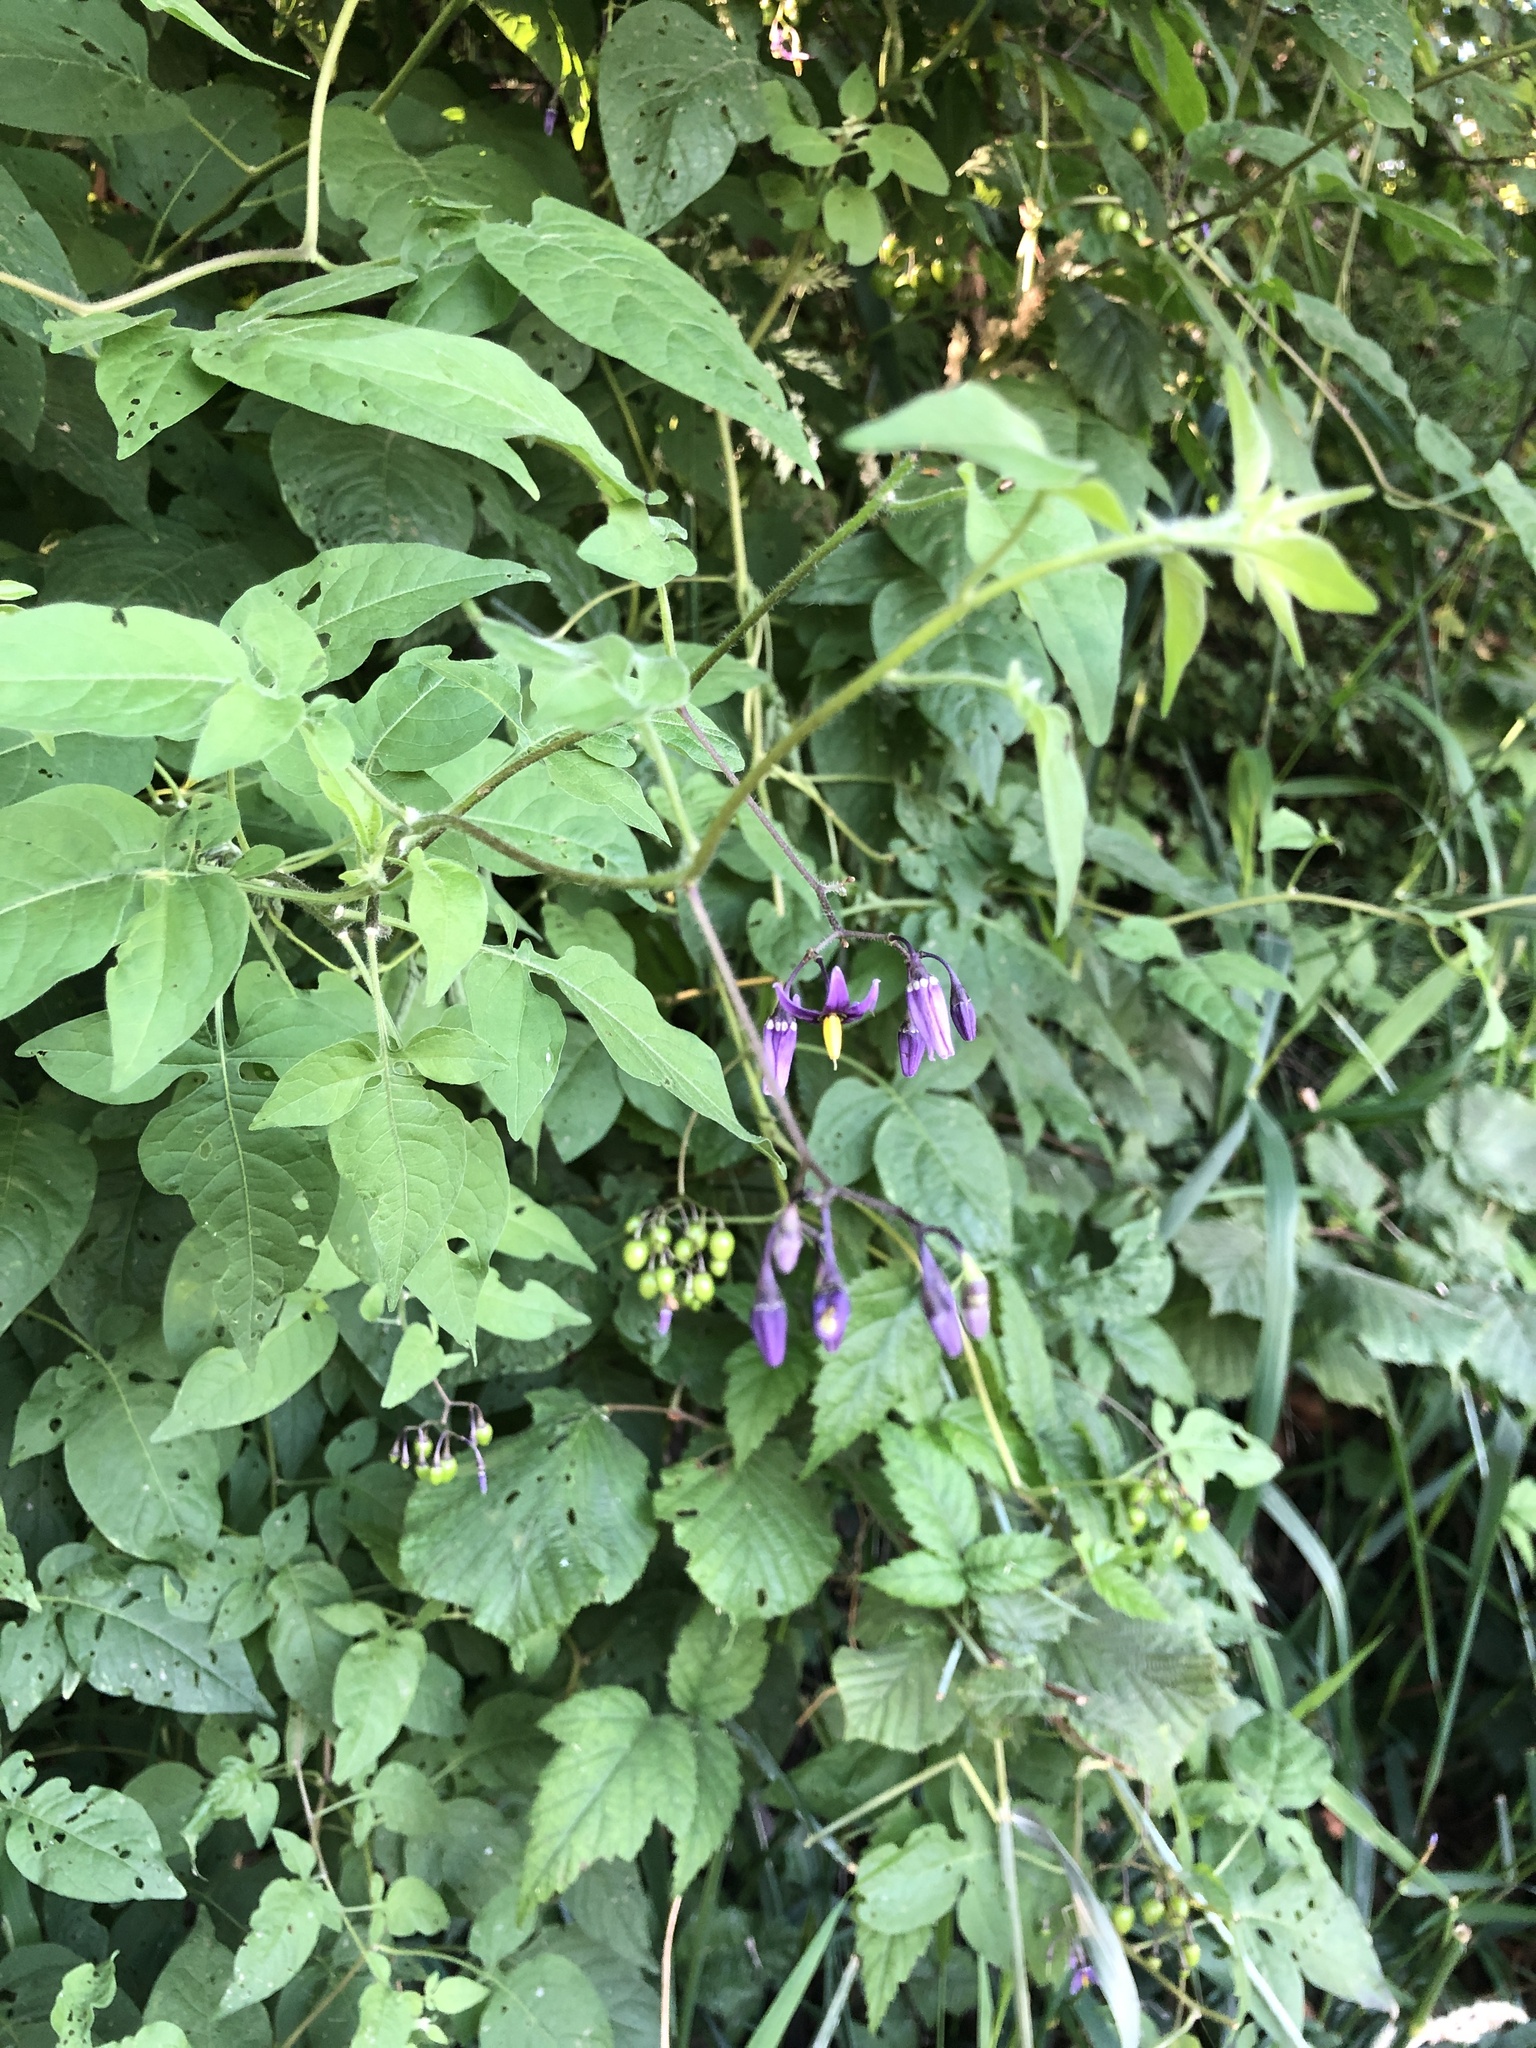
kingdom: Plantae
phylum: Tracheophyta
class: Magnoliopsida
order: Solanales
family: Solanaceae
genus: Solanum
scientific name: Solanum dulcamara
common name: Climbing nightshade
